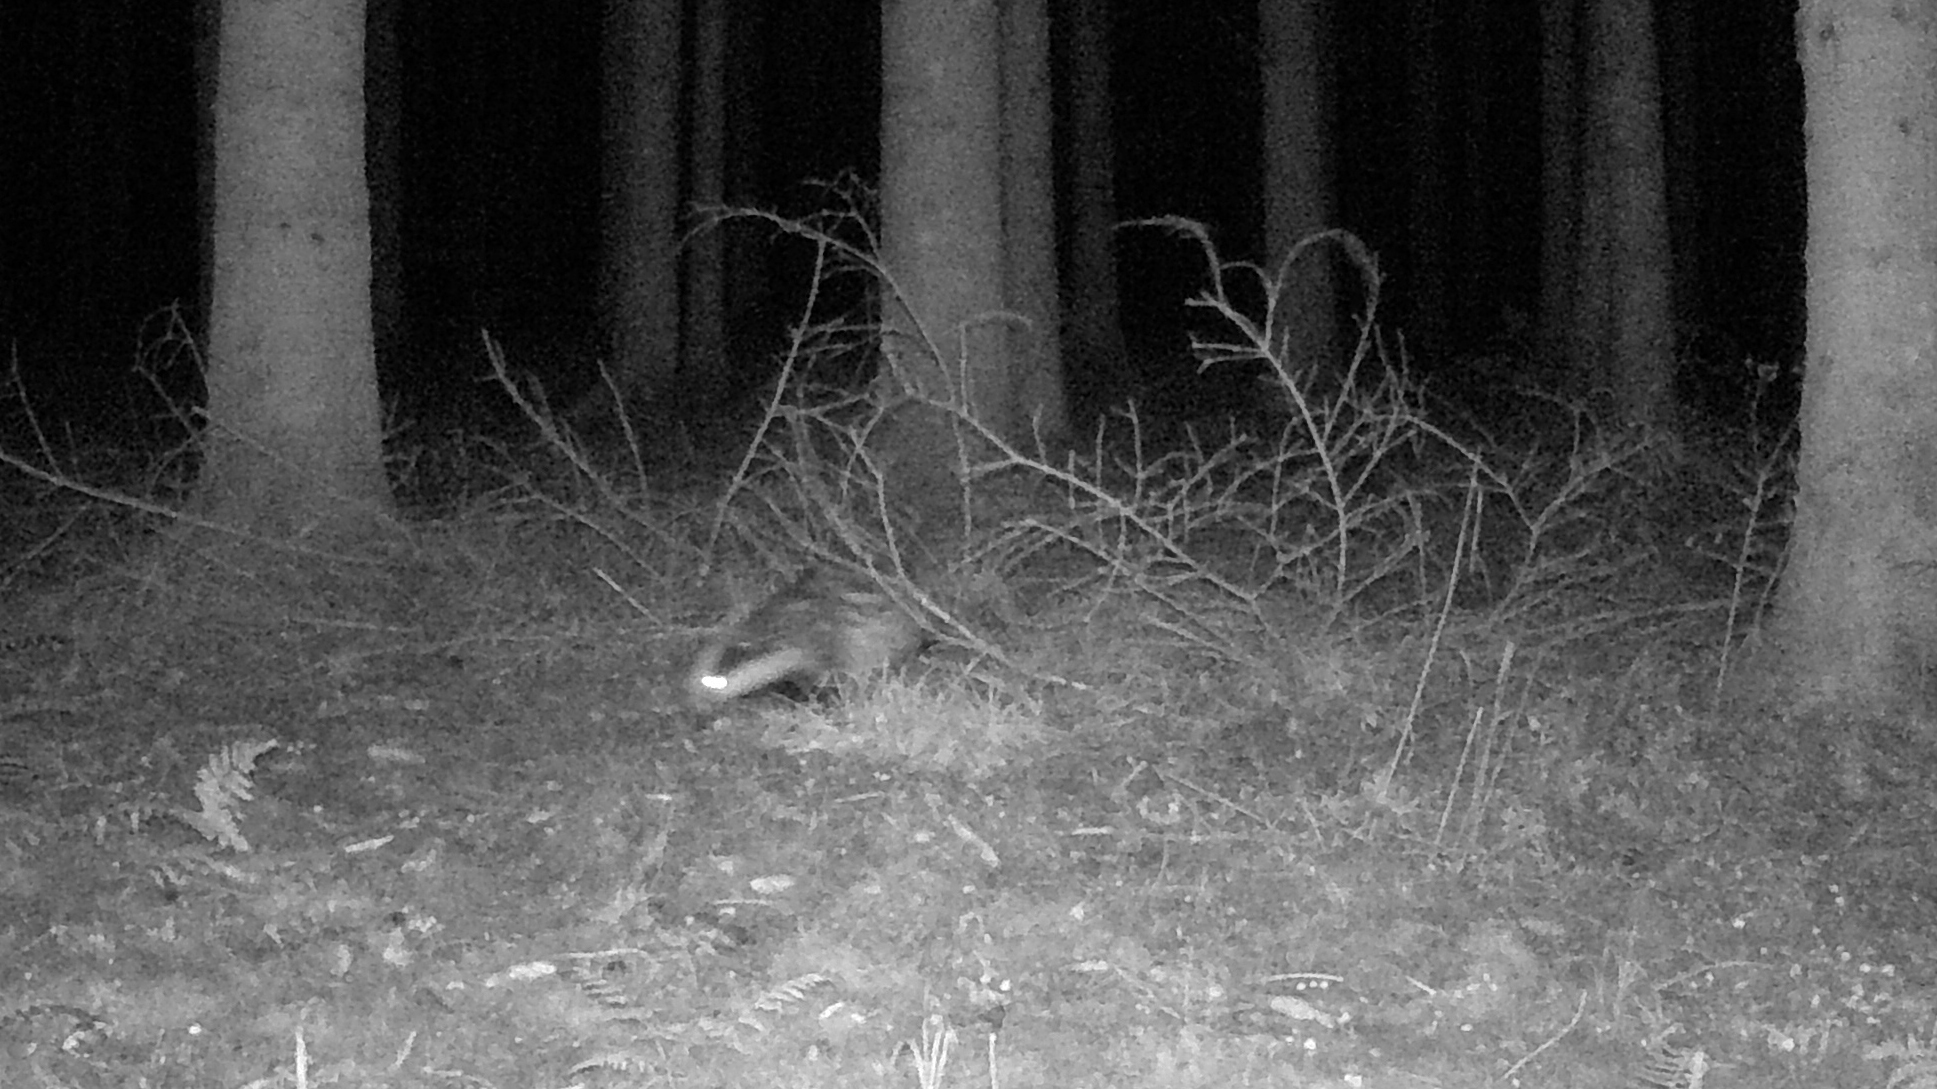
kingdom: Animalia
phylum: Chordata
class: Mammalia
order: Carnivora
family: Mustelidae
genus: Meles
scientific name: Meles meles
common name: Eurasian badger
